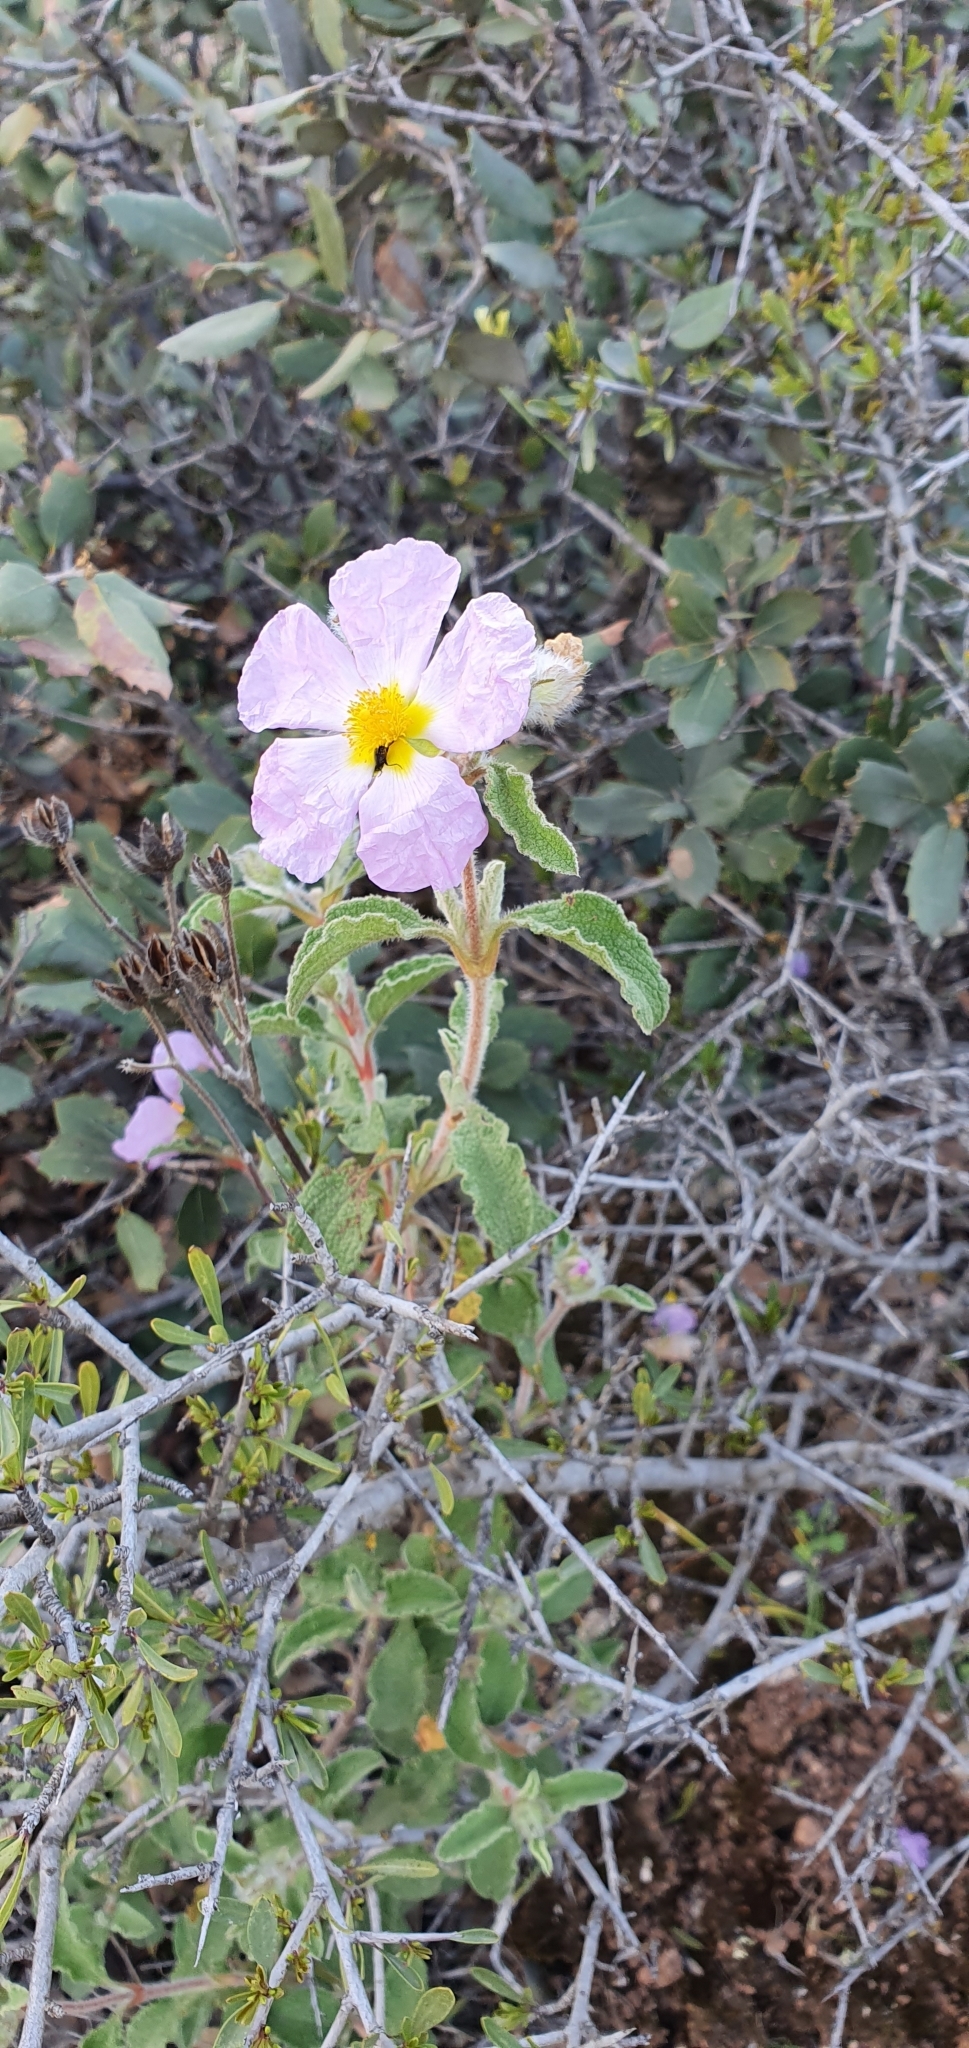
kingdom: Plantae
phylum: Tracheophyta
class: Magnoliopsida
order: Malvales
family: Cistaceae
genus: Cistus
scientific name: Cistus creticus
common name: Cretan rockrose
